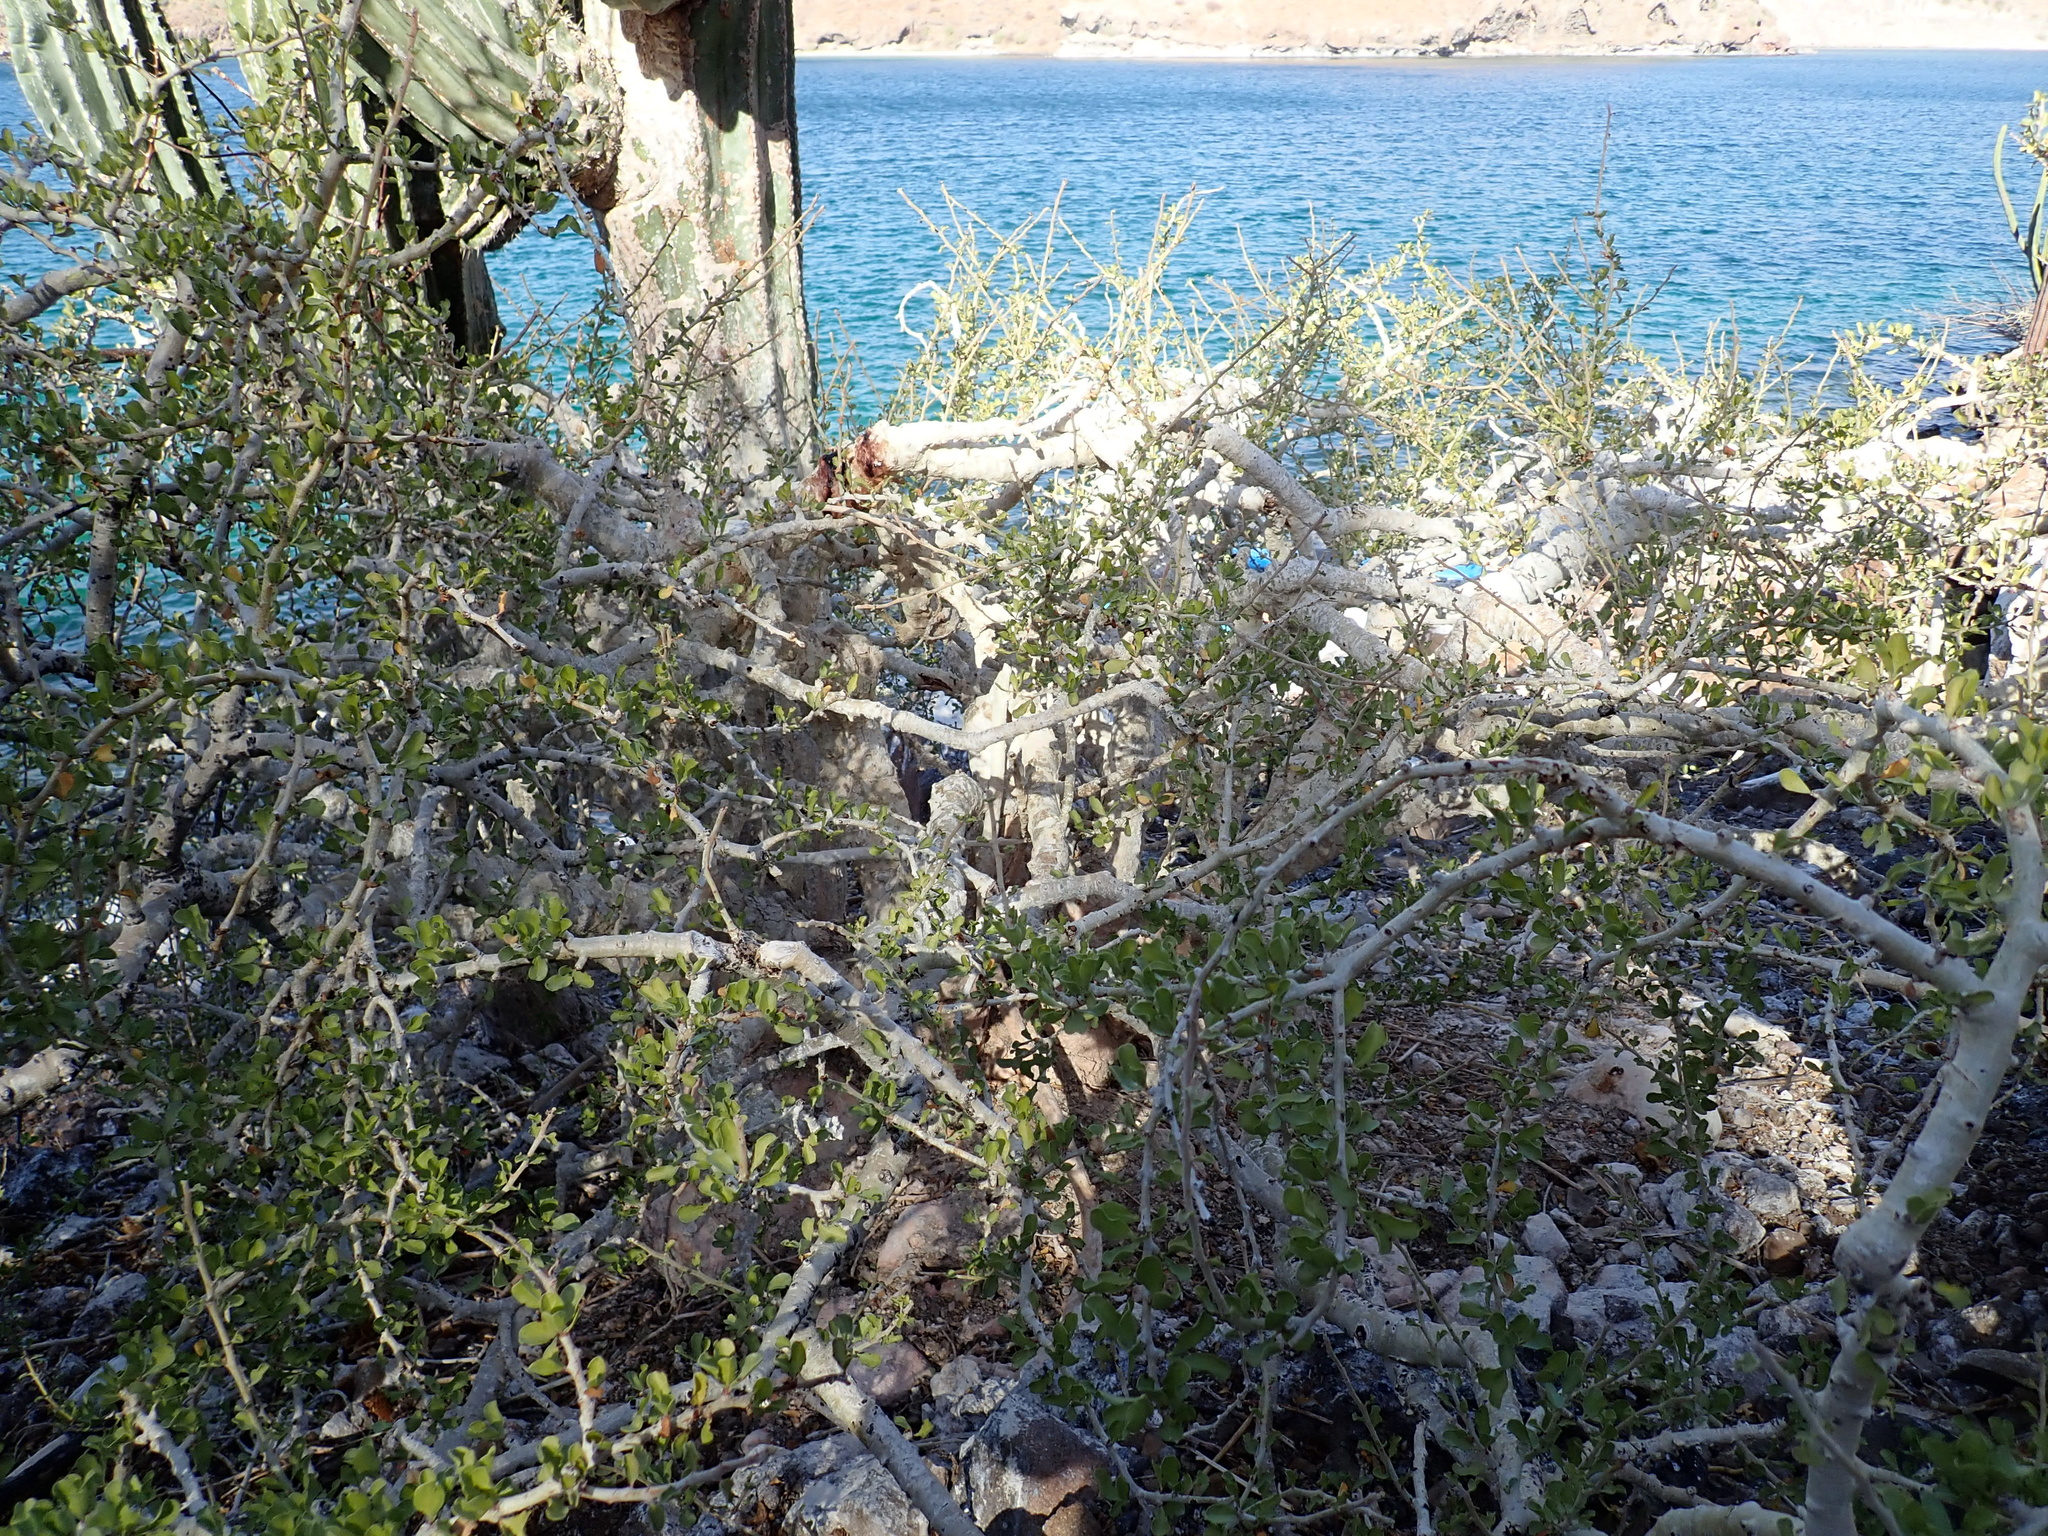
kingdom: Plantae
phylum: Tracheophyta
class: Magnoliopsida
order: Malpighiales
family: Euphorbiaceae
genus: Jatropha
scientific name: Jatropha cuneata
